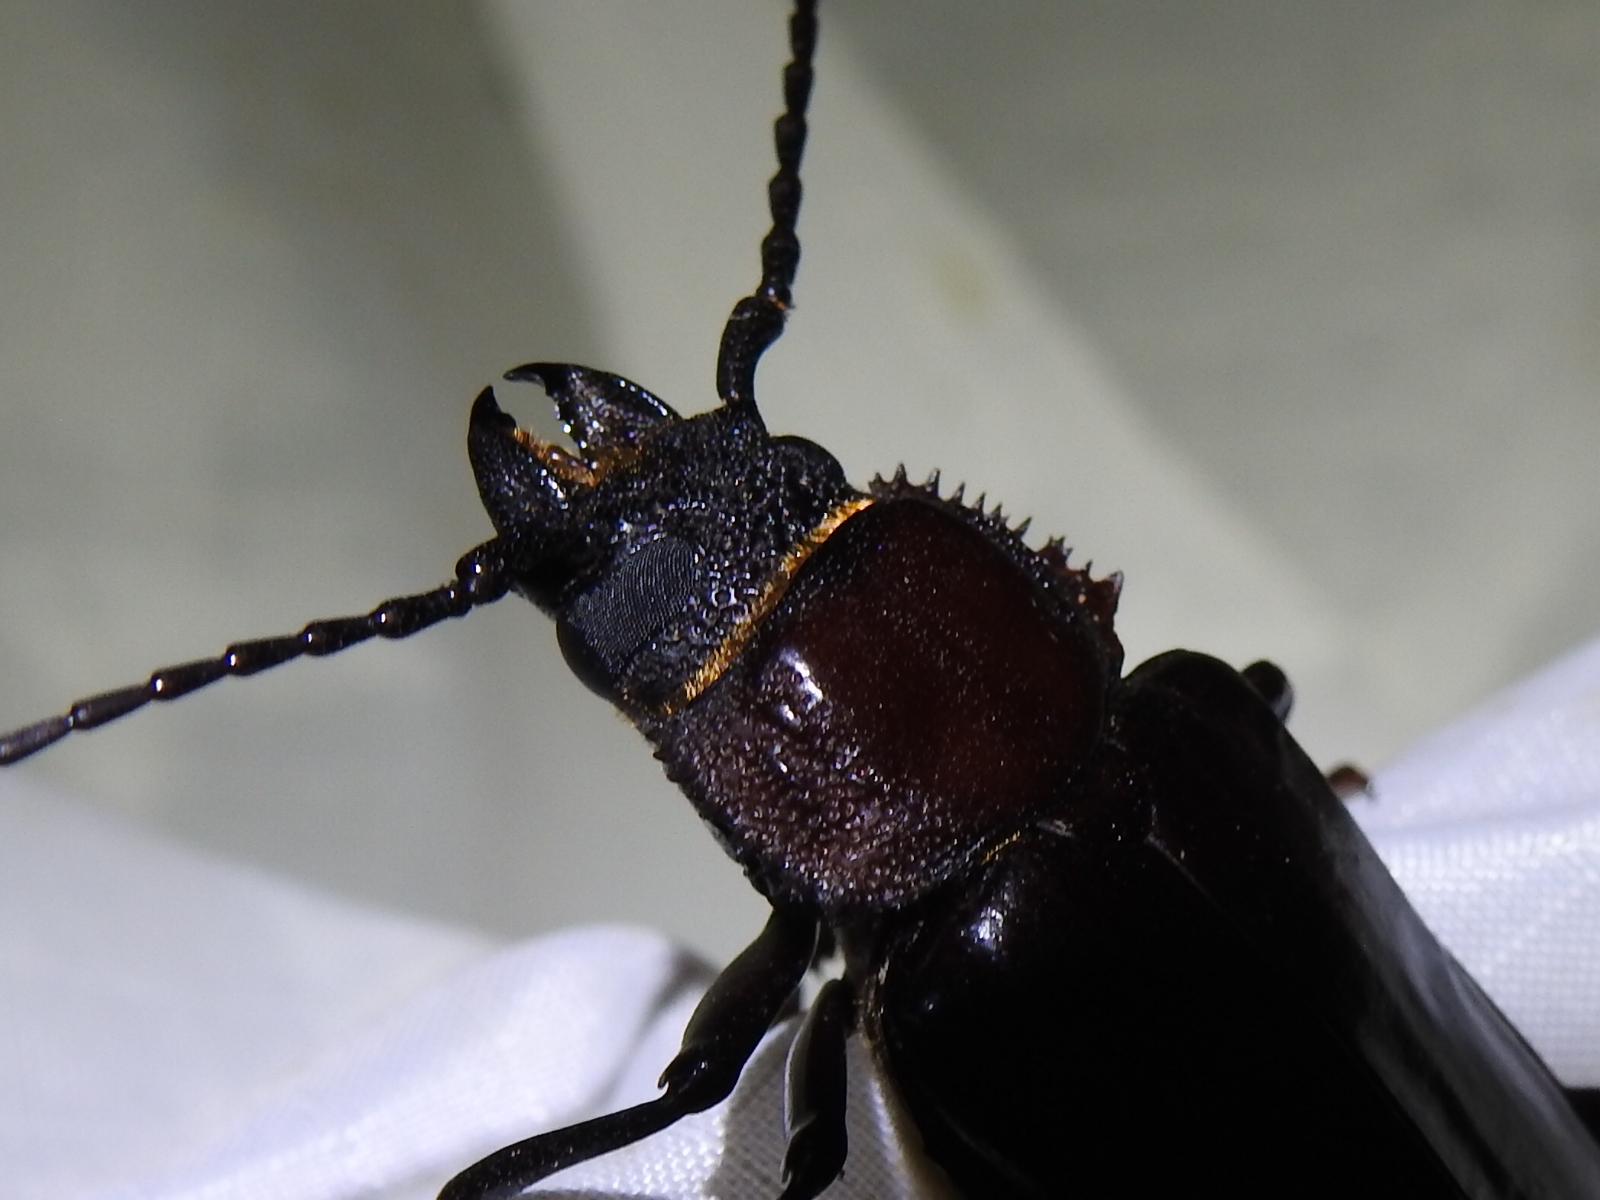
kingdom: Animalia
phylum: Arthropoda
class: Insecta
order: Coleoptera
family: Cerambycidae
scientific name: Cerambycidae
